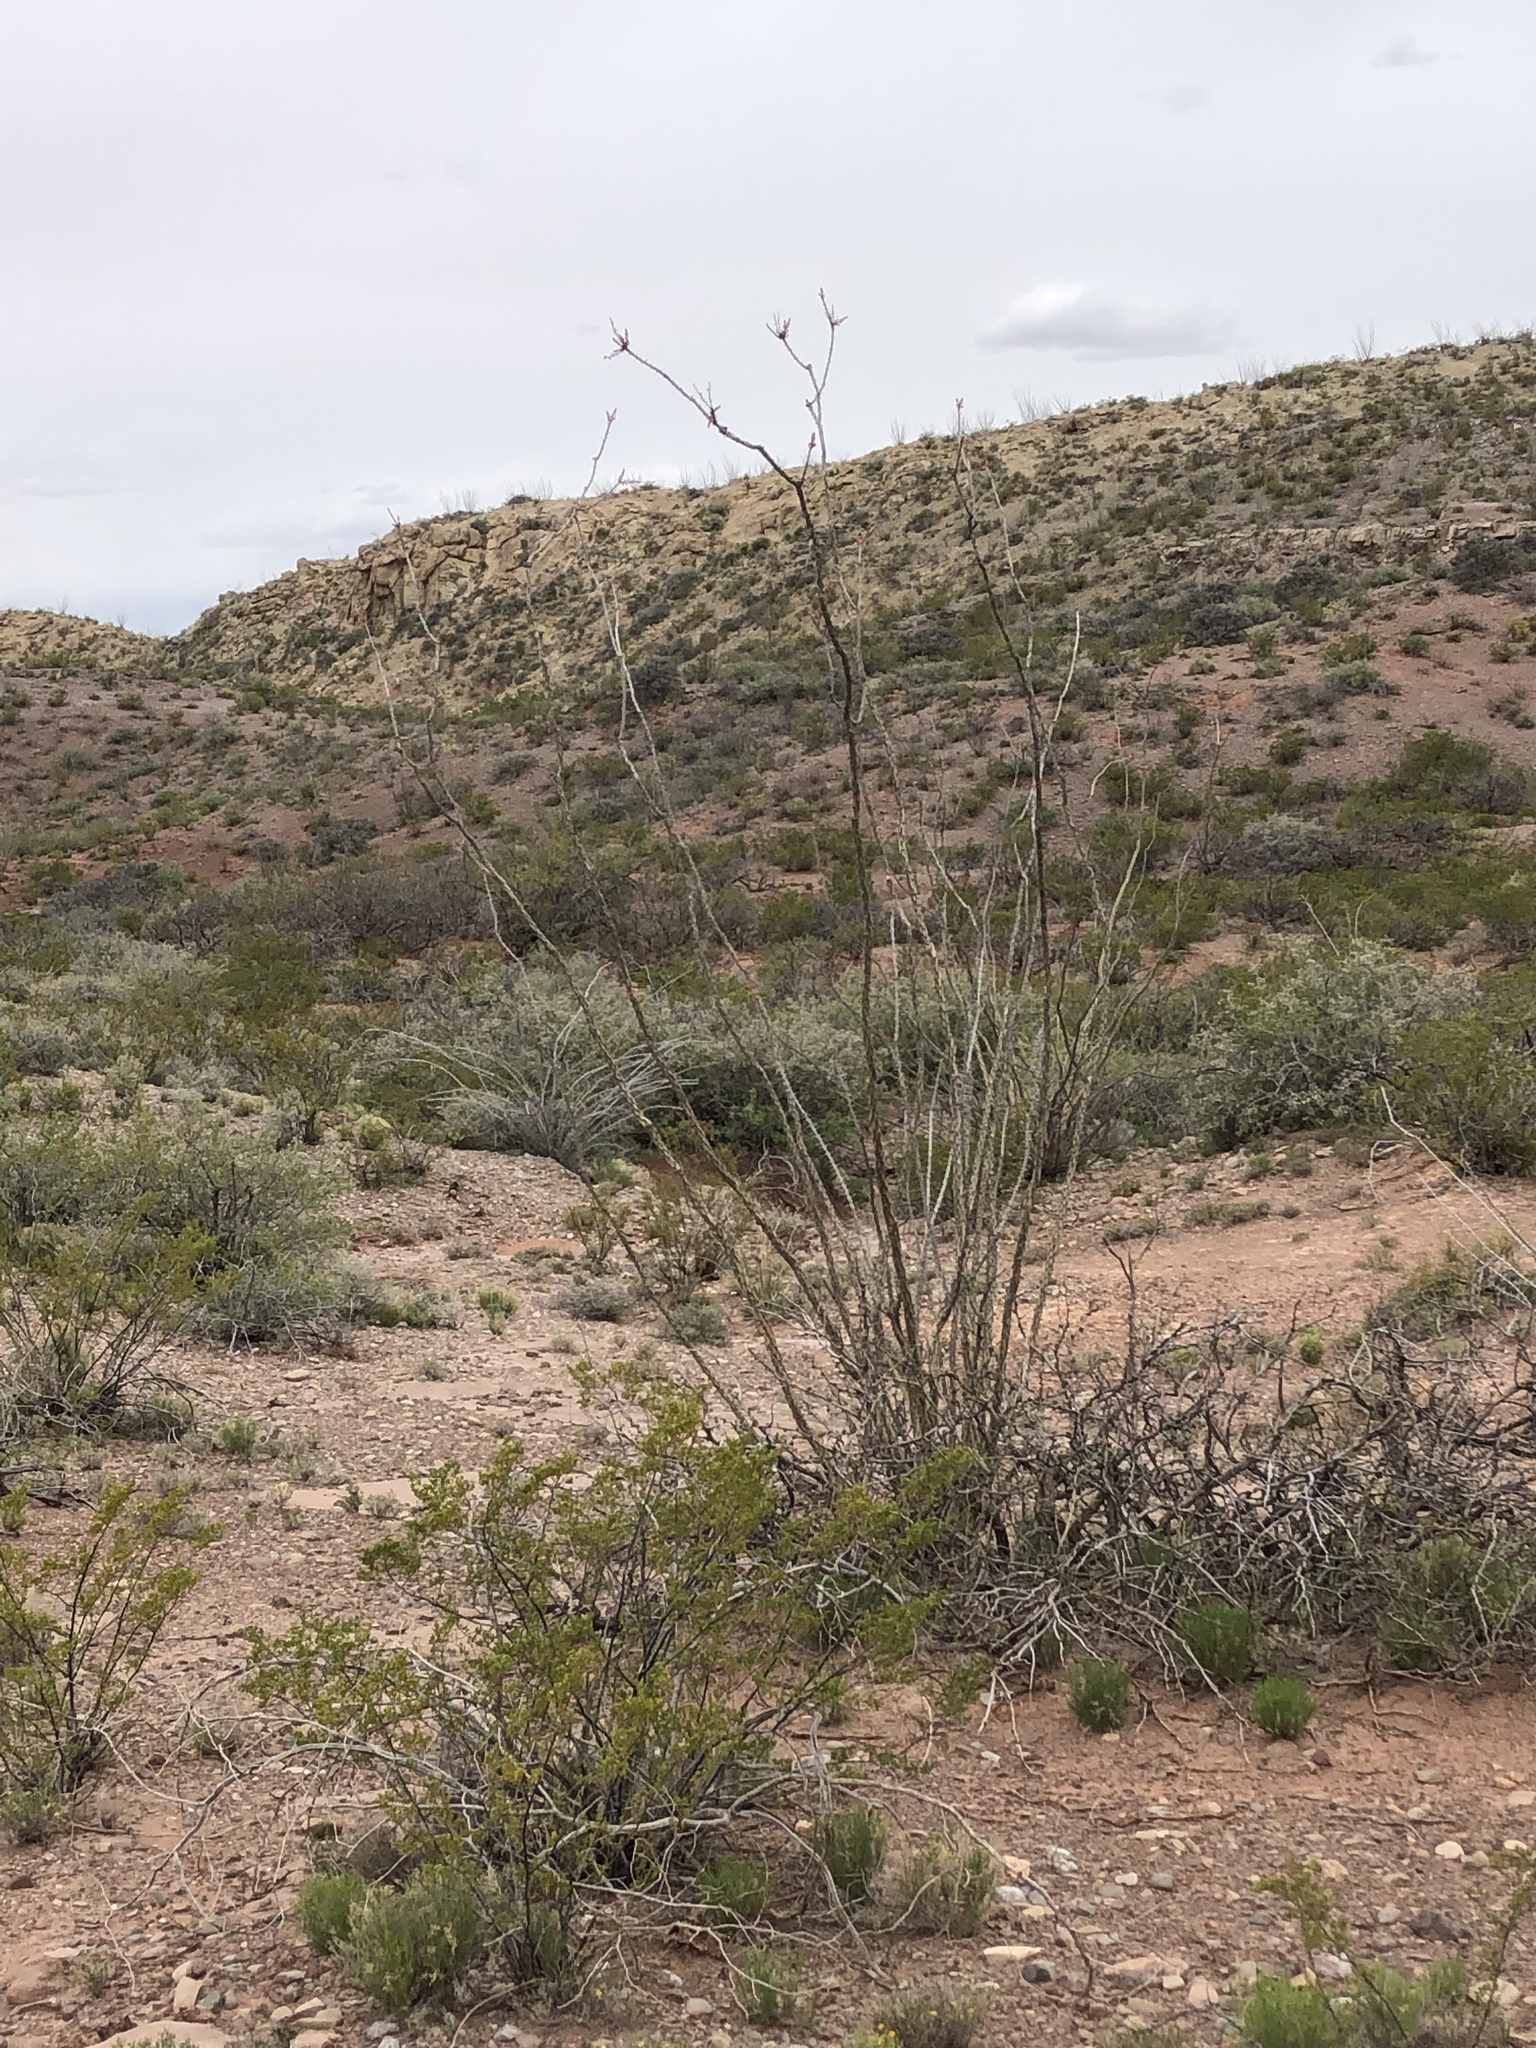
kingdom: Plantae
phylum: Tracheophyta
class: Magnoliopsida
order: Ericales
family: Fouquieriaceae
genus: Fouquieria
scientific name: Fouquieria splendens
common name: Vine-cactus
